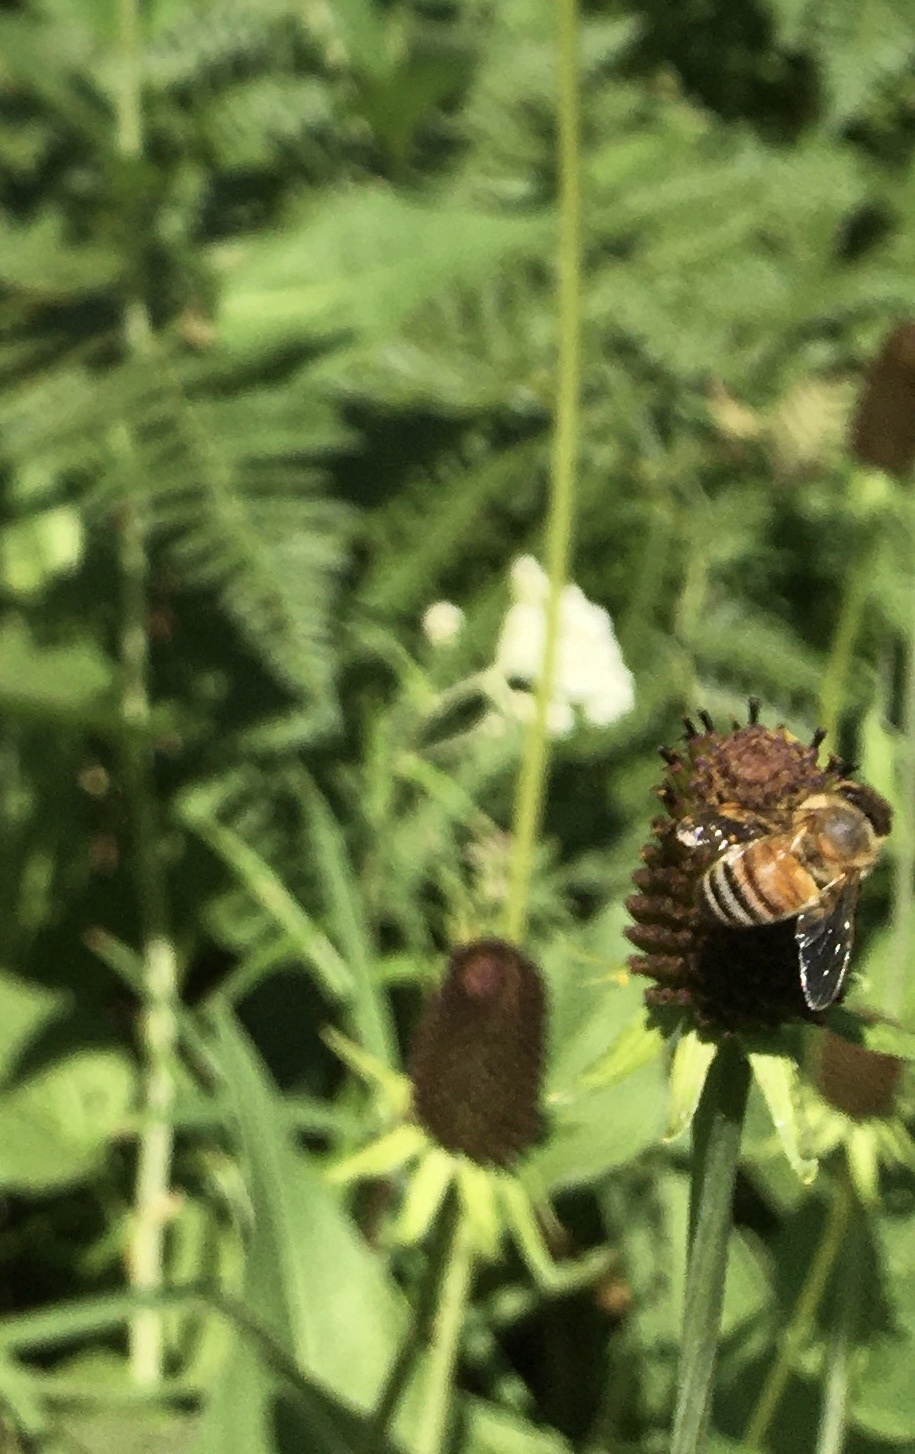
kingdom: Animalia
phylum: Arthropoda
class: Insecta
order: Hymenoptera
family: Apidae
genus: Apis
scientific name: Apis mellifera
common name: Honey bee
